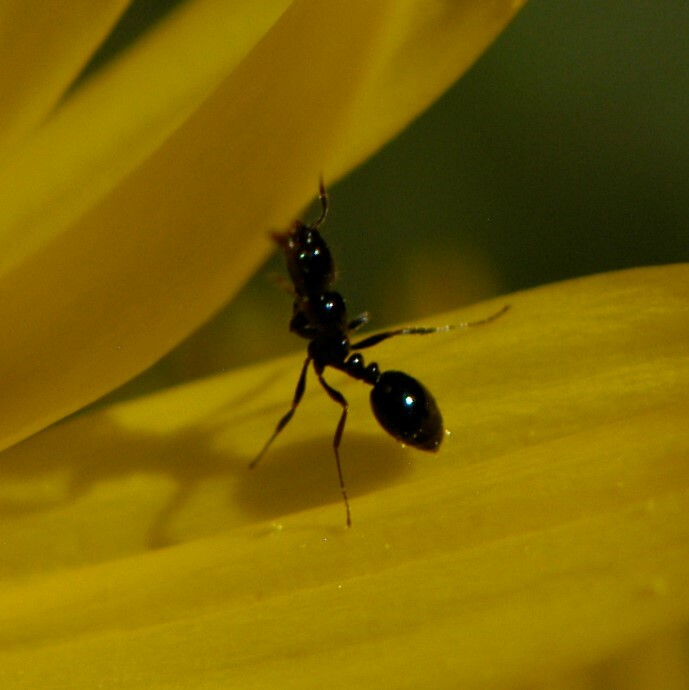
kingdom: Animalia
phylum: Arthropoda
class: Insecta
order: Hymenoptera
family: Formicidae
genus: Monomorium
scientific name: Monomorium
